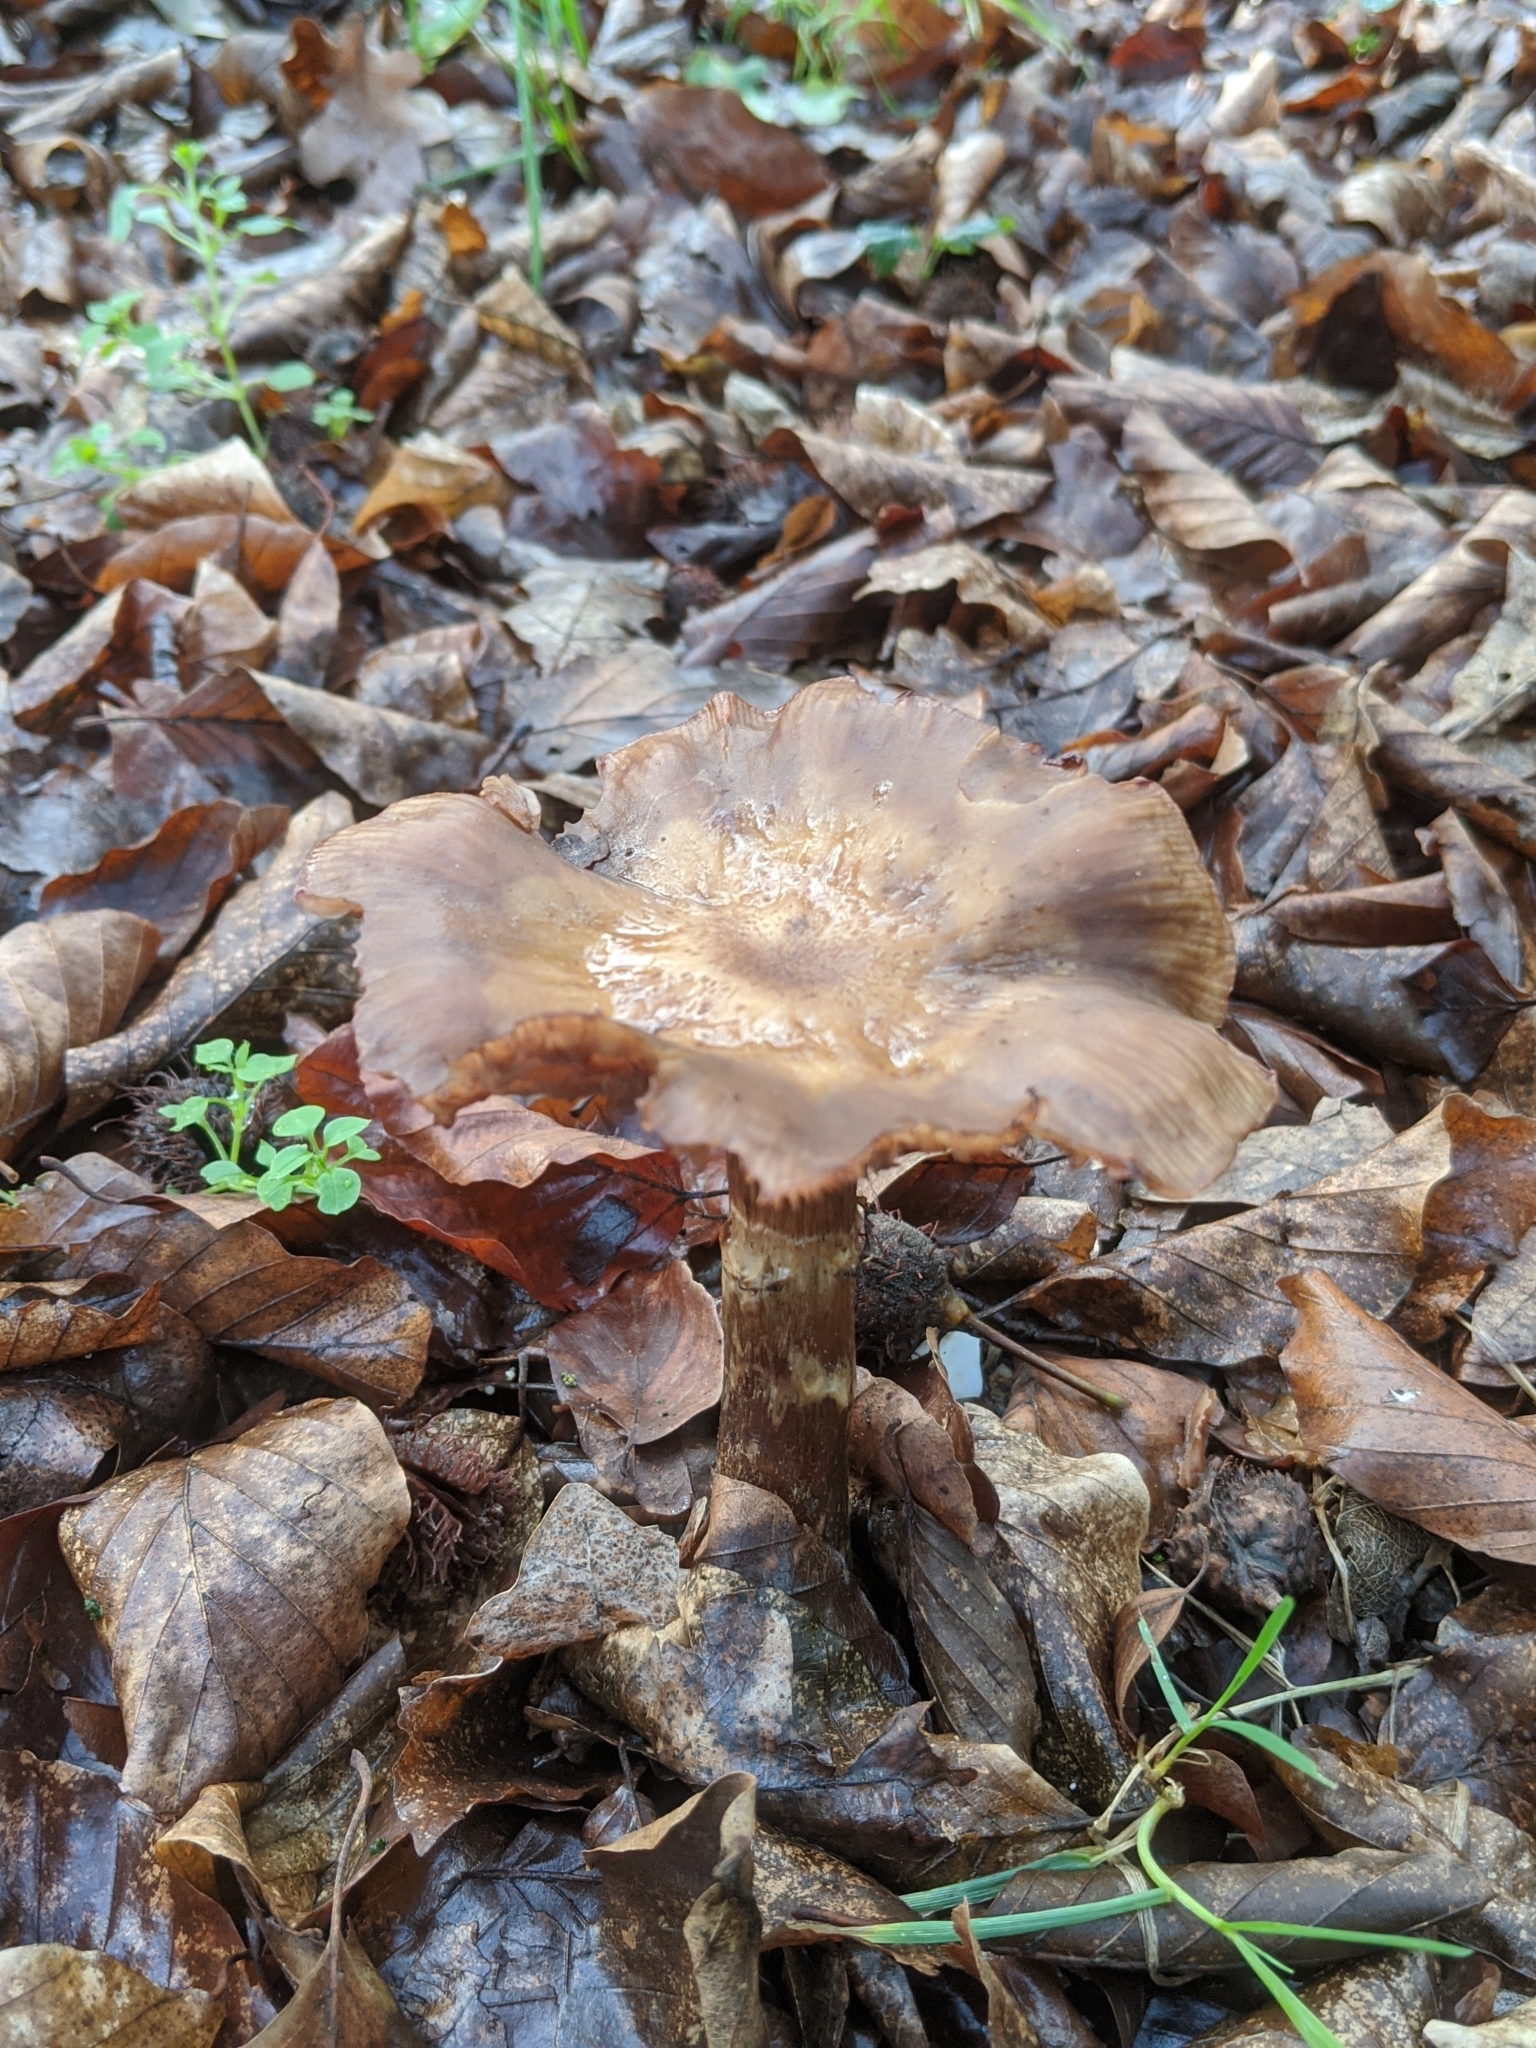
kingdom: Fungi
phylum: Basidiomycota
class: Agaricomycetes
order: Agaricales
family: Physalacriaceae
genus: Armillaria
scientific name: Armillaria mellea
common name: Honey fungus
